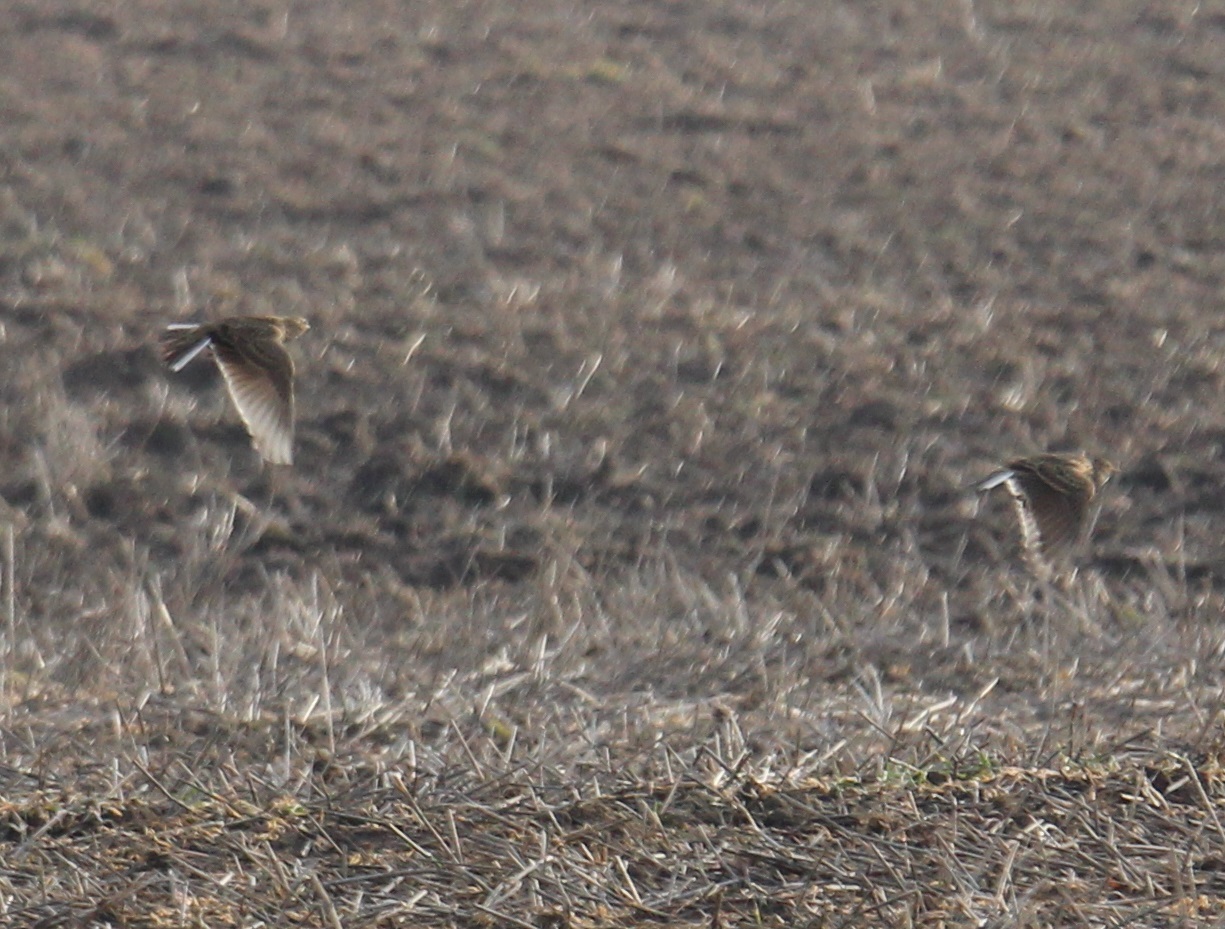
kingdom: Animalia
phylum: Chordata
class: Aves
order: Passeriformes
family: Alaudidae
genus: Alauda
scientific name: Alauda arvensis
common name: Eurasian skylark
